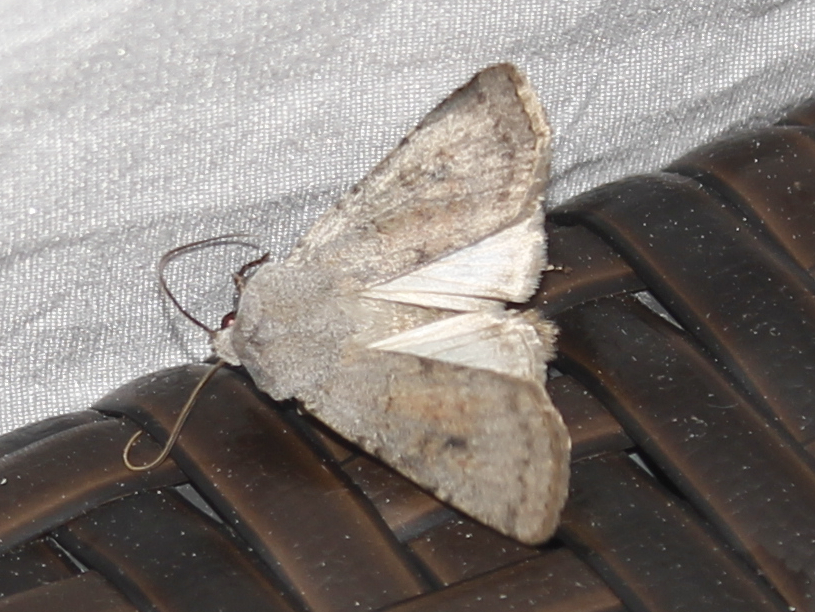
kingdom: Animalia
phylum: Arthropoda
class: Insecta
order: Lepidoptera
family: Noctuidae
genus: Euxoa
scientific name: Euxoa bostoniensis
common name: Boston dart
